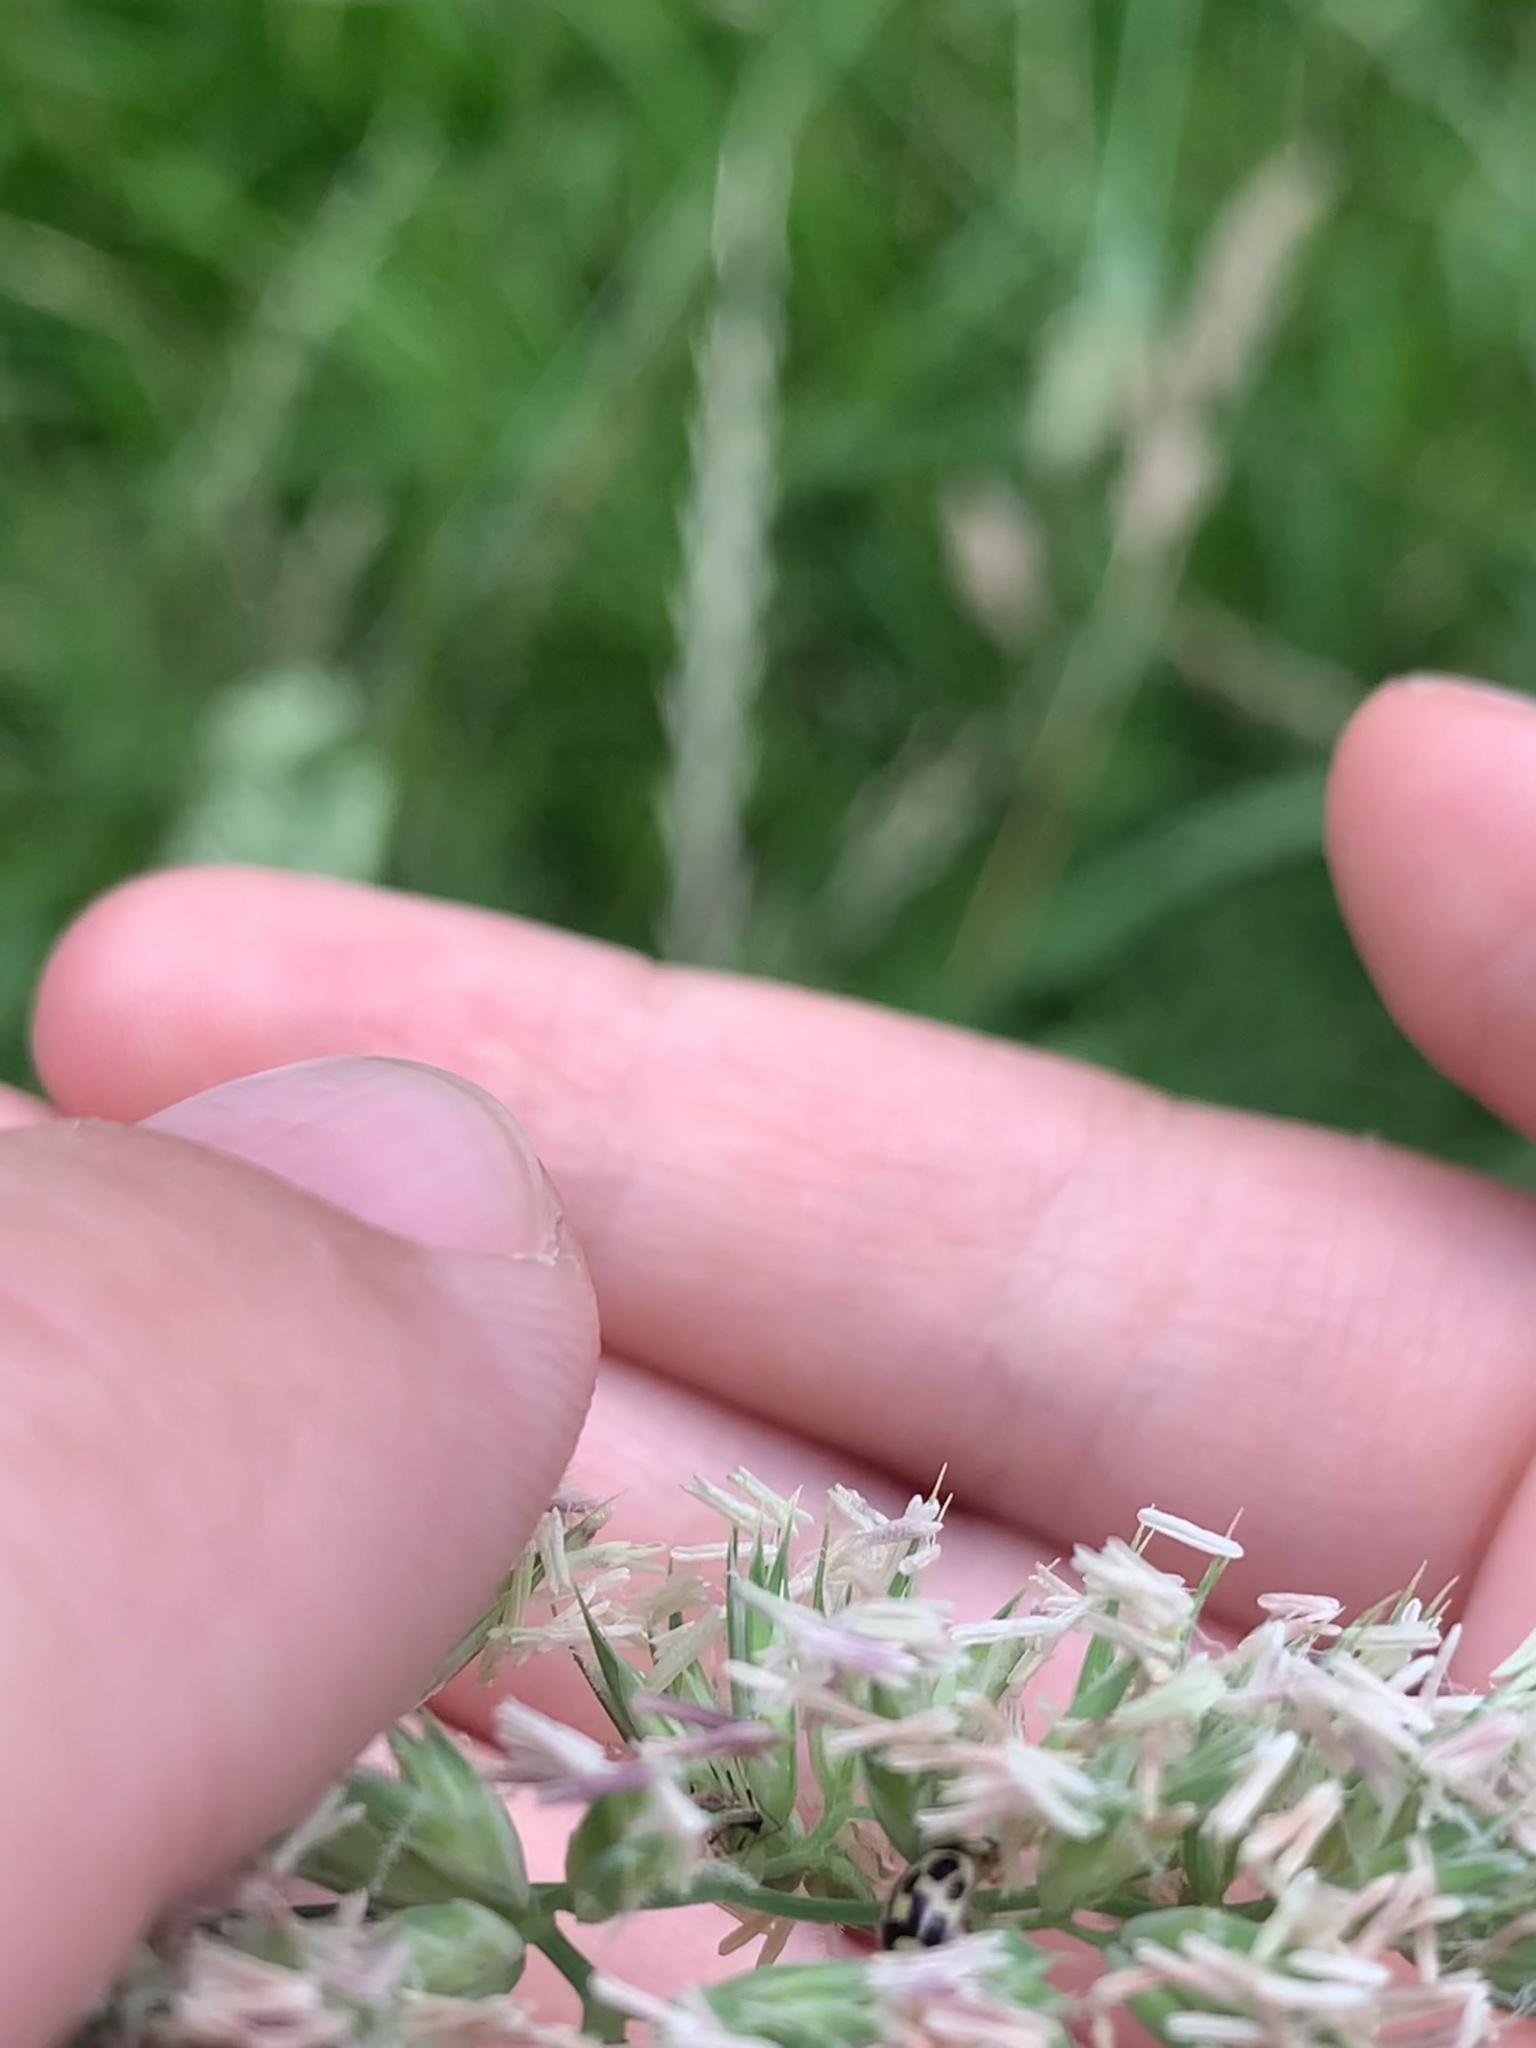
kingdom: Animalia
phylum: Arthropoda
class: Insecta
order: Coleoptera
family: Coccinellidae
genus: Propylaea
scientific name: Propylaea quatuordecimpunctata
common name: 14-spotted ladybird beetle
